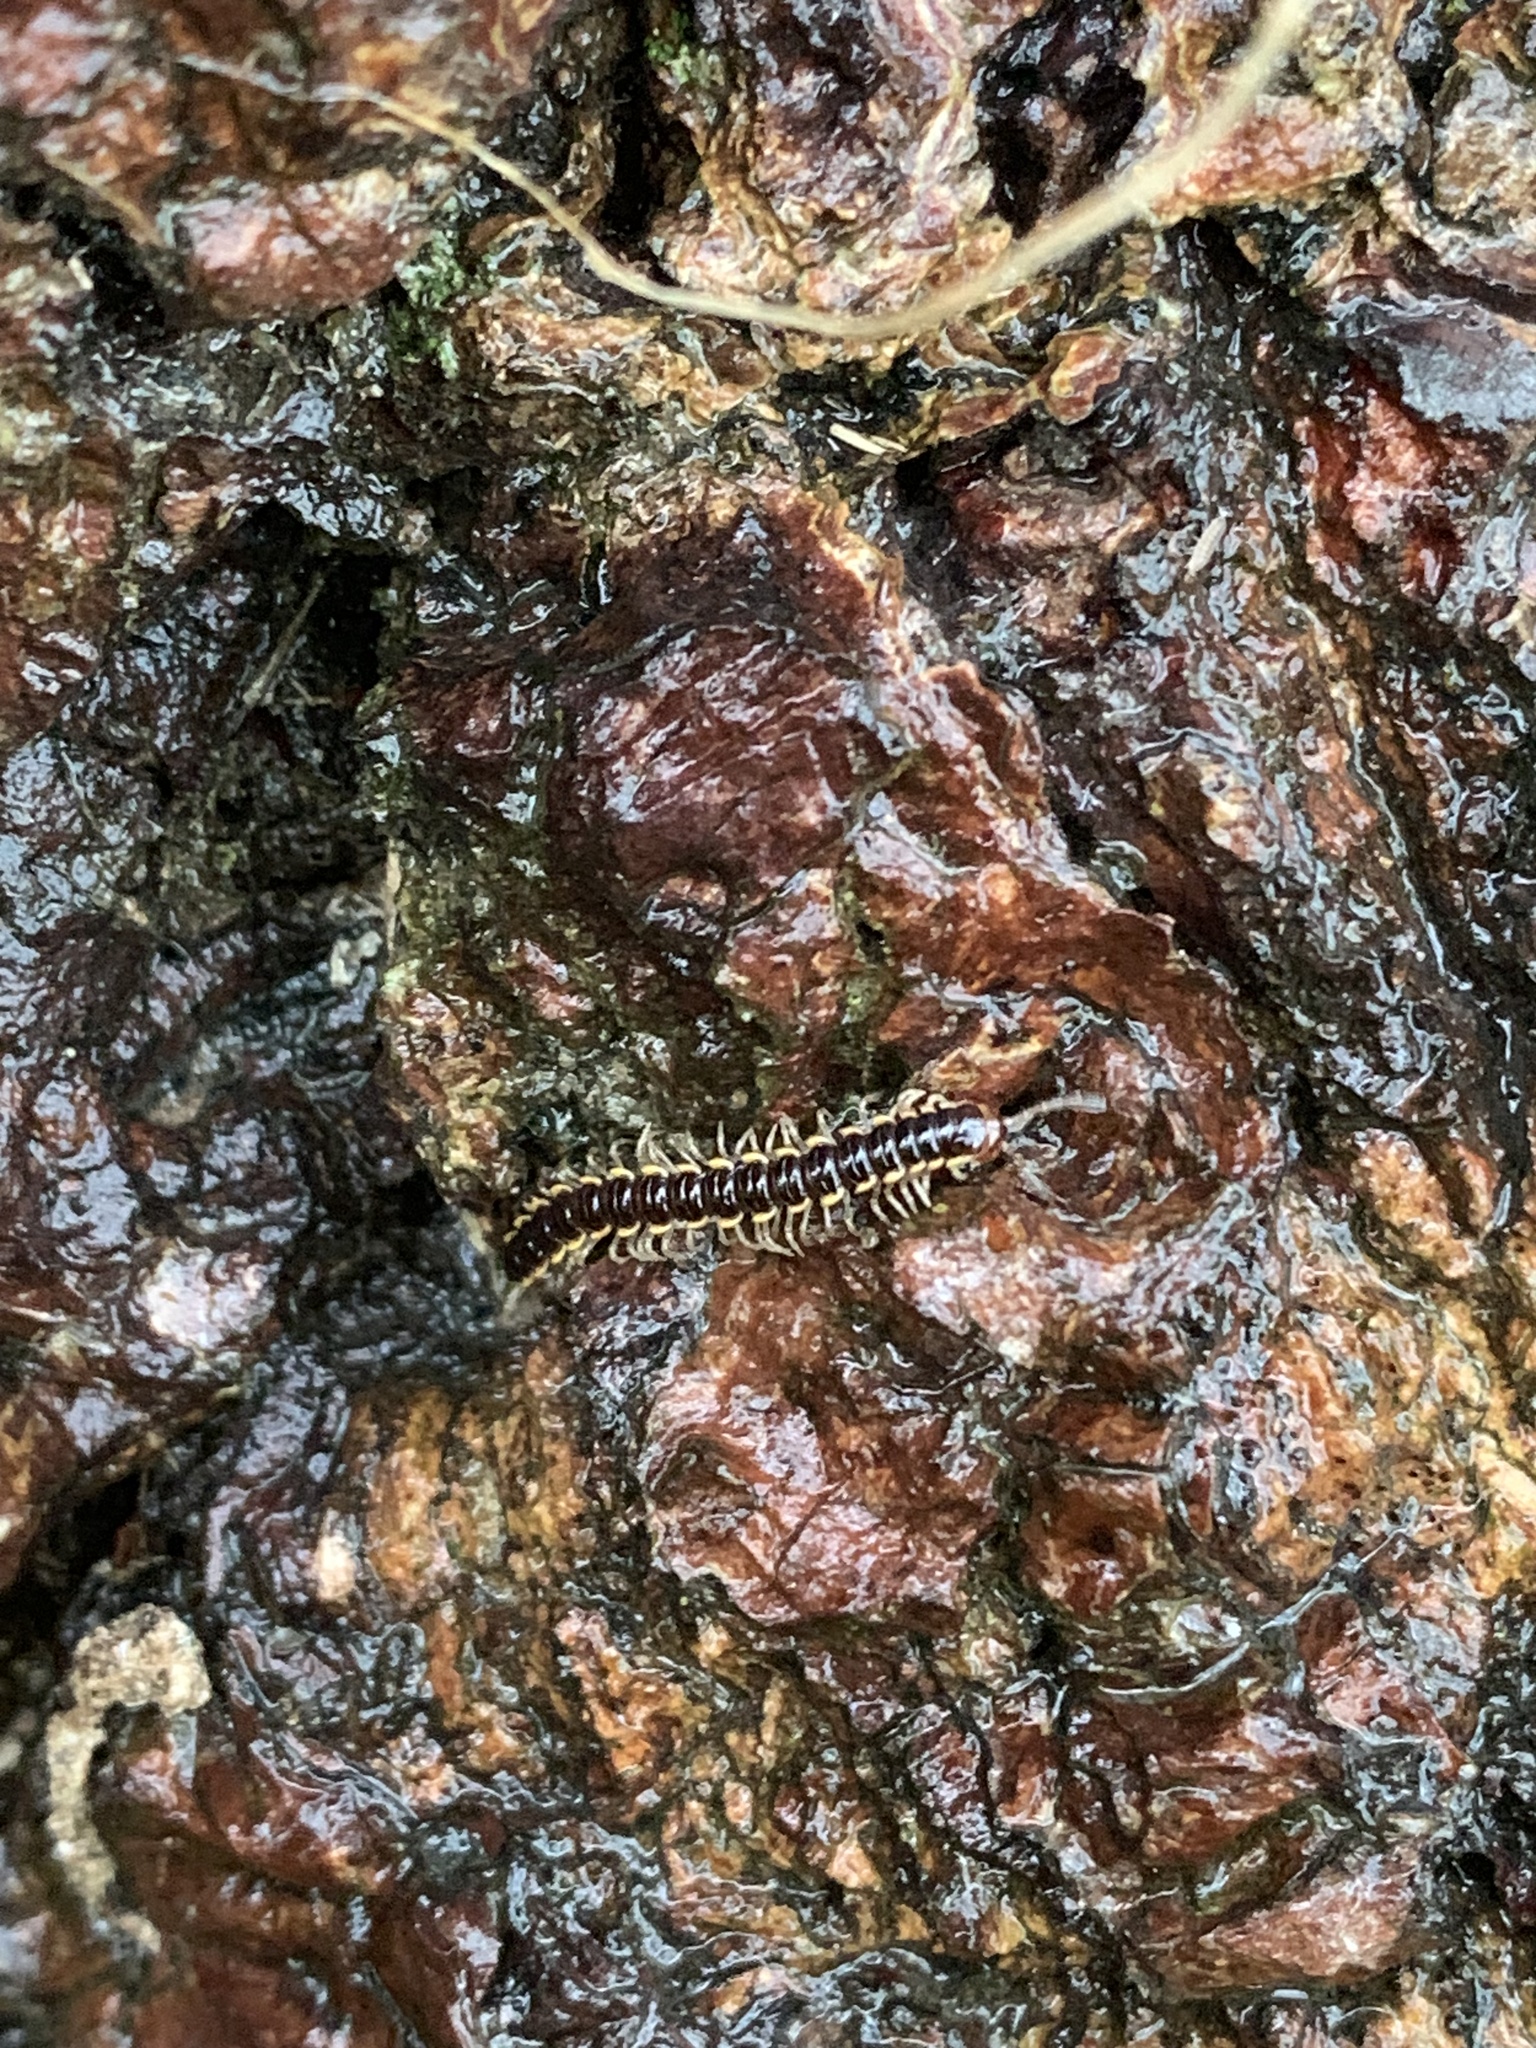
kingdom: Animalia
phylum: Arthropoda
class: Diplopoda
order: Polydesmida
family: Paradoxosomatidae
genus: Orthomorpha
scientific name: Orthomorpha coarctata
